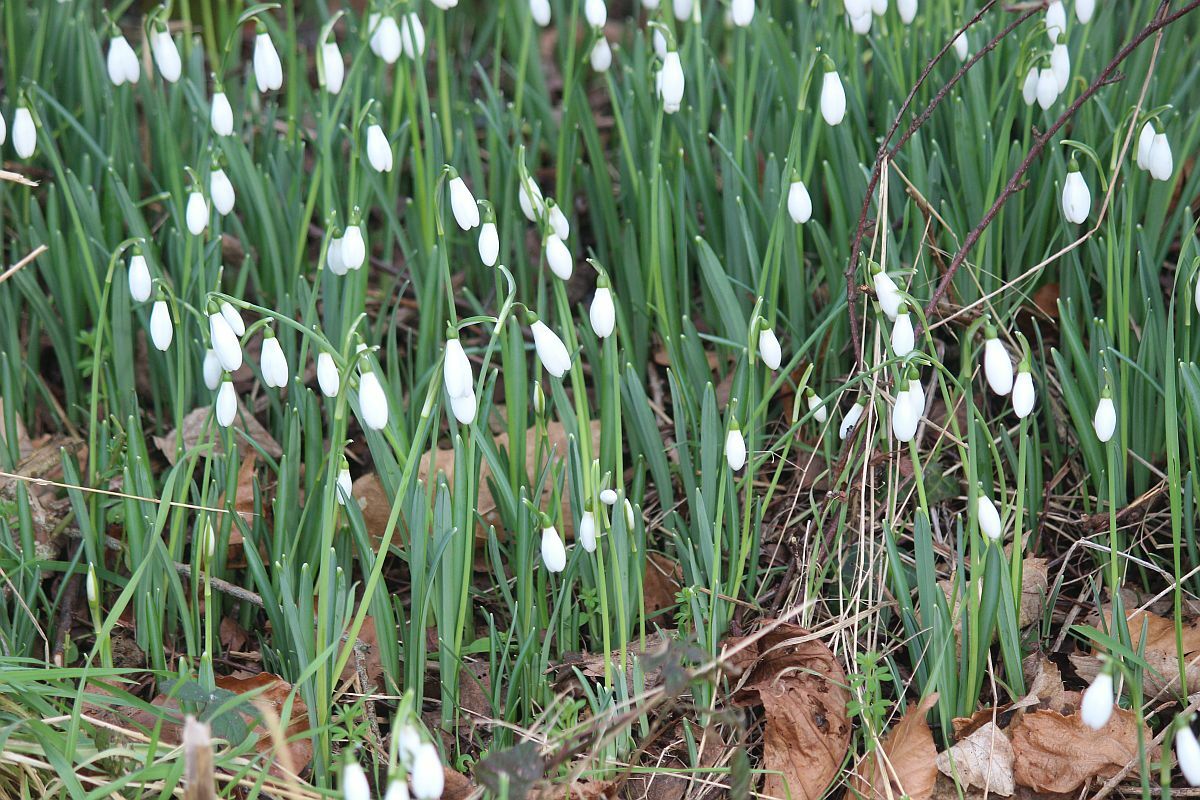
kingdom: Plantae
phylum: Tracheophyta
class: Liliopsida
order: Asparagales
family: Amaryllidaceae
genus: Galanthus
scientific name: Galanthus nivalis
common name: Snowdrop
